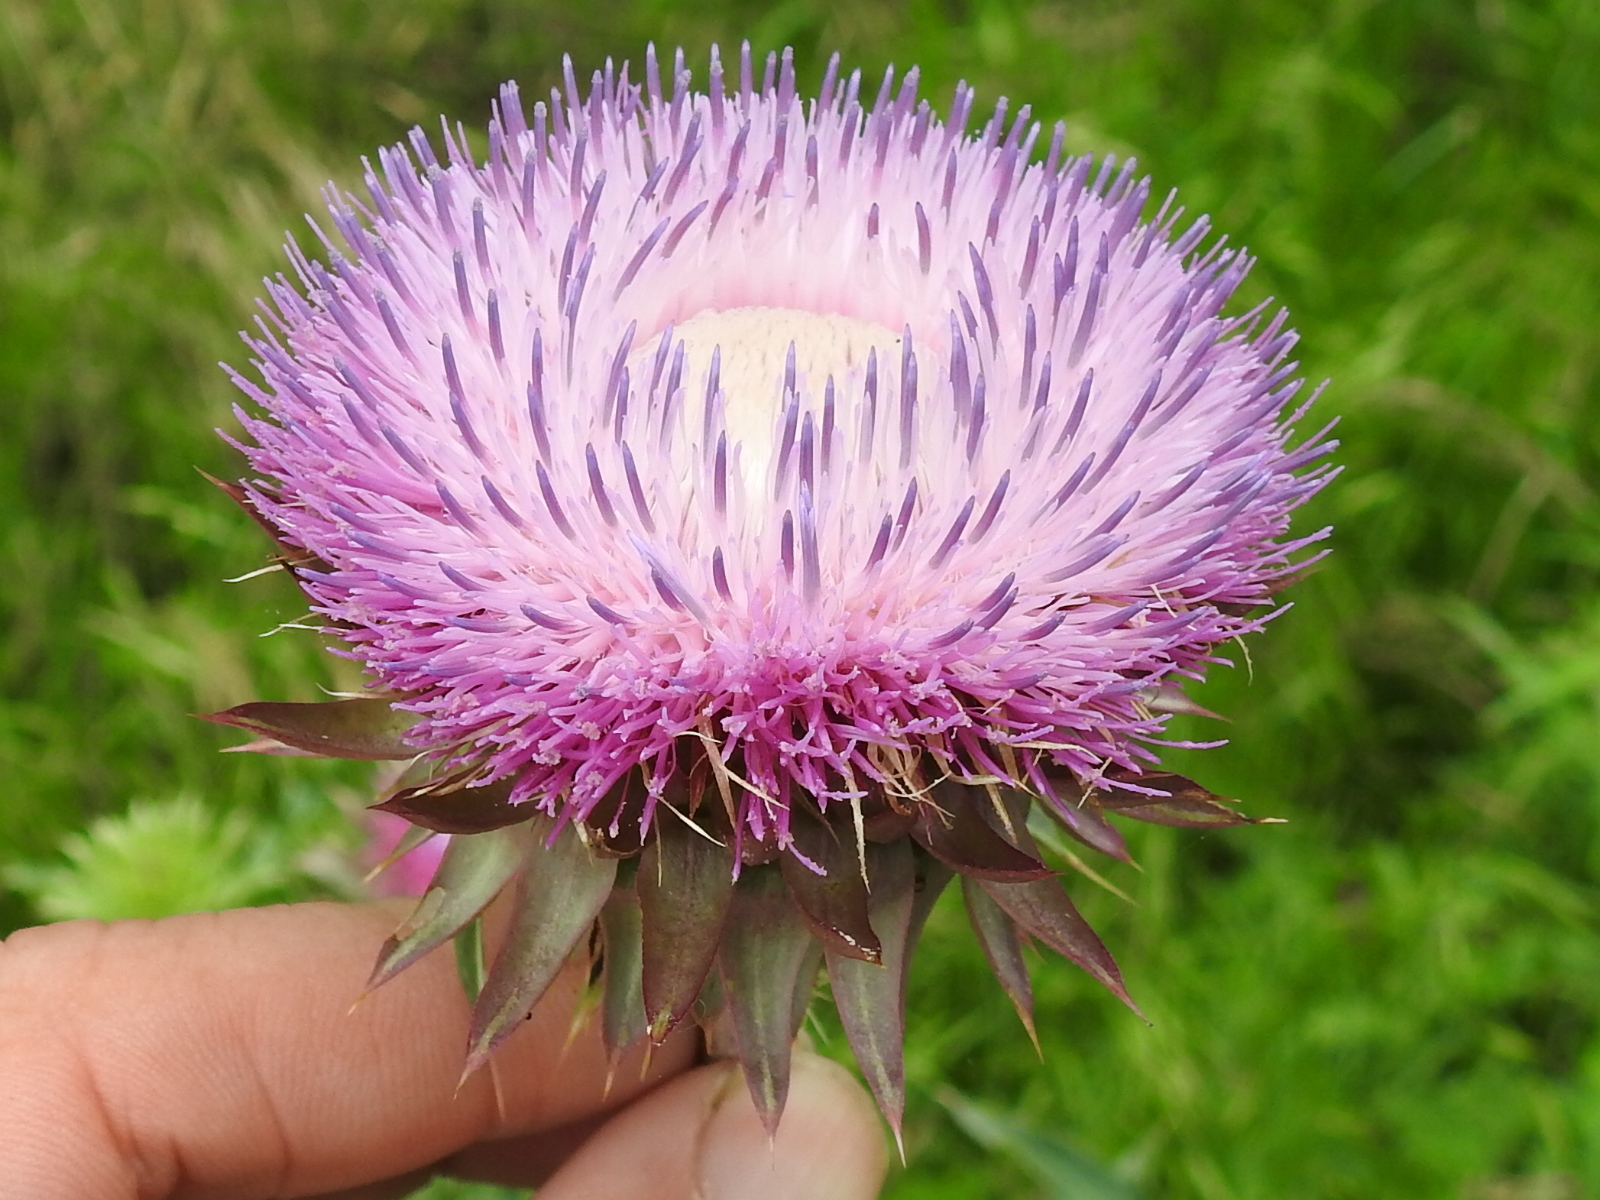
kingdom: Plantae
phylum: Tracheophyta
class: Magnoliopsida
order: Asterales
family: Asteraceae
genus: Carduus
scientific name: Carduus nutans
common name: Musk thistle
